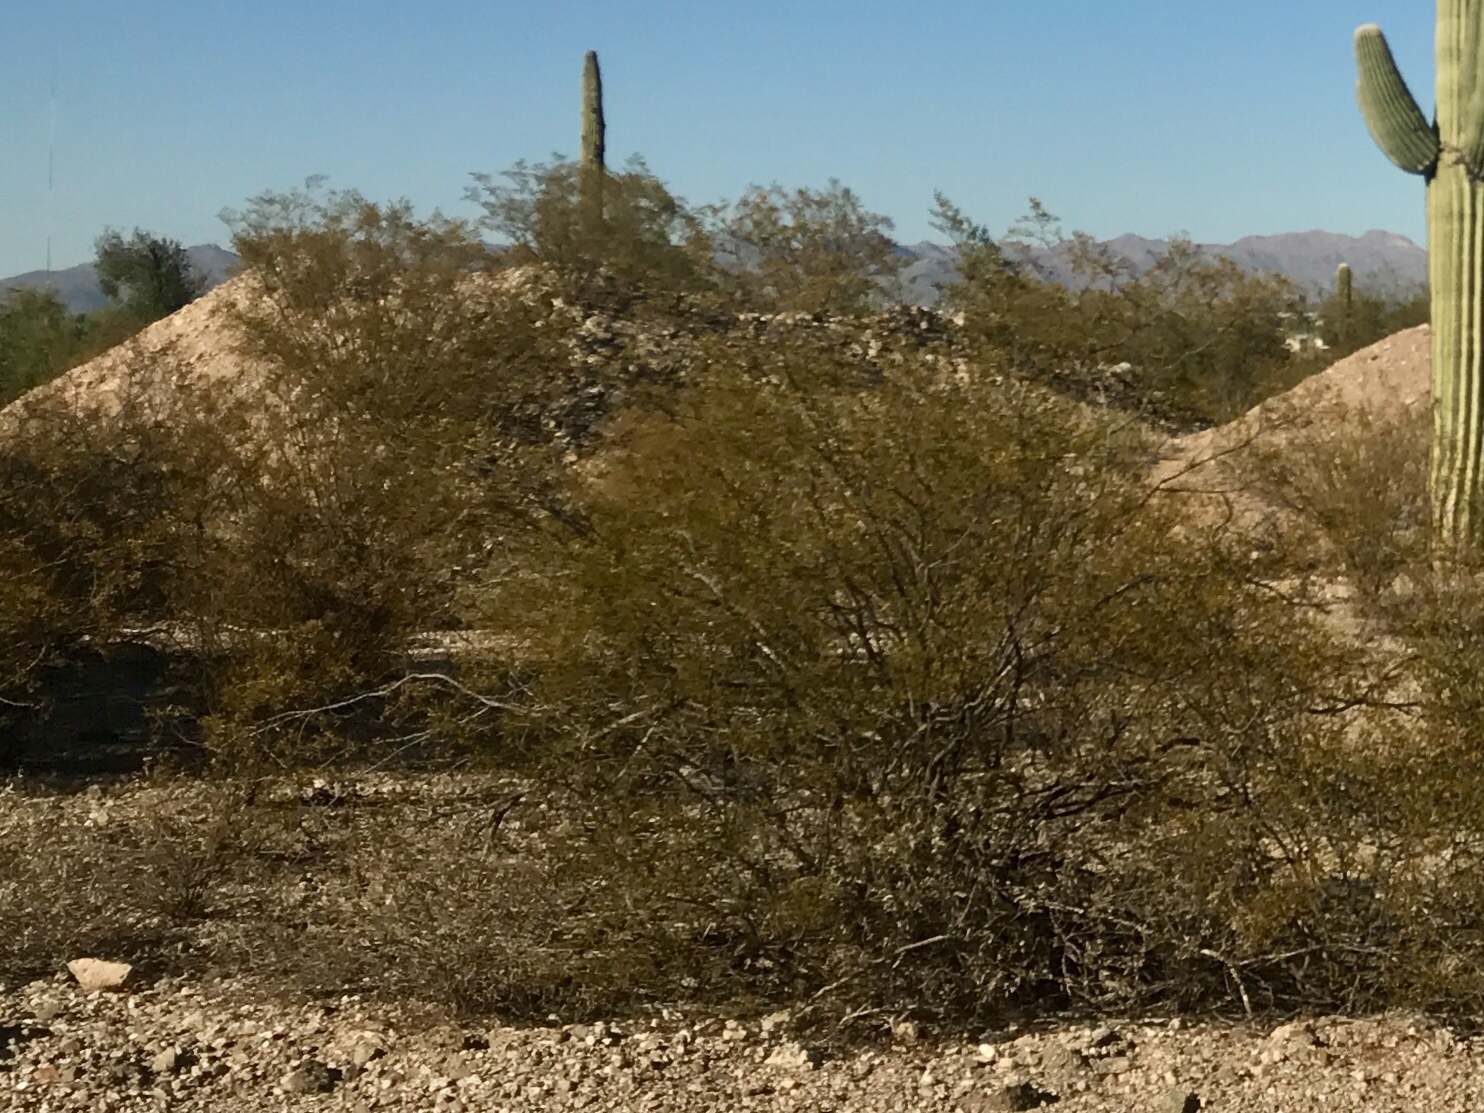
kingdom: Plantae
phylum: Tracheophyta
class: Magnoliopsida
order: Zygophyllales
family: Zygophyllaceae
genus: Larrea
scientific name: Larrea tridentata
